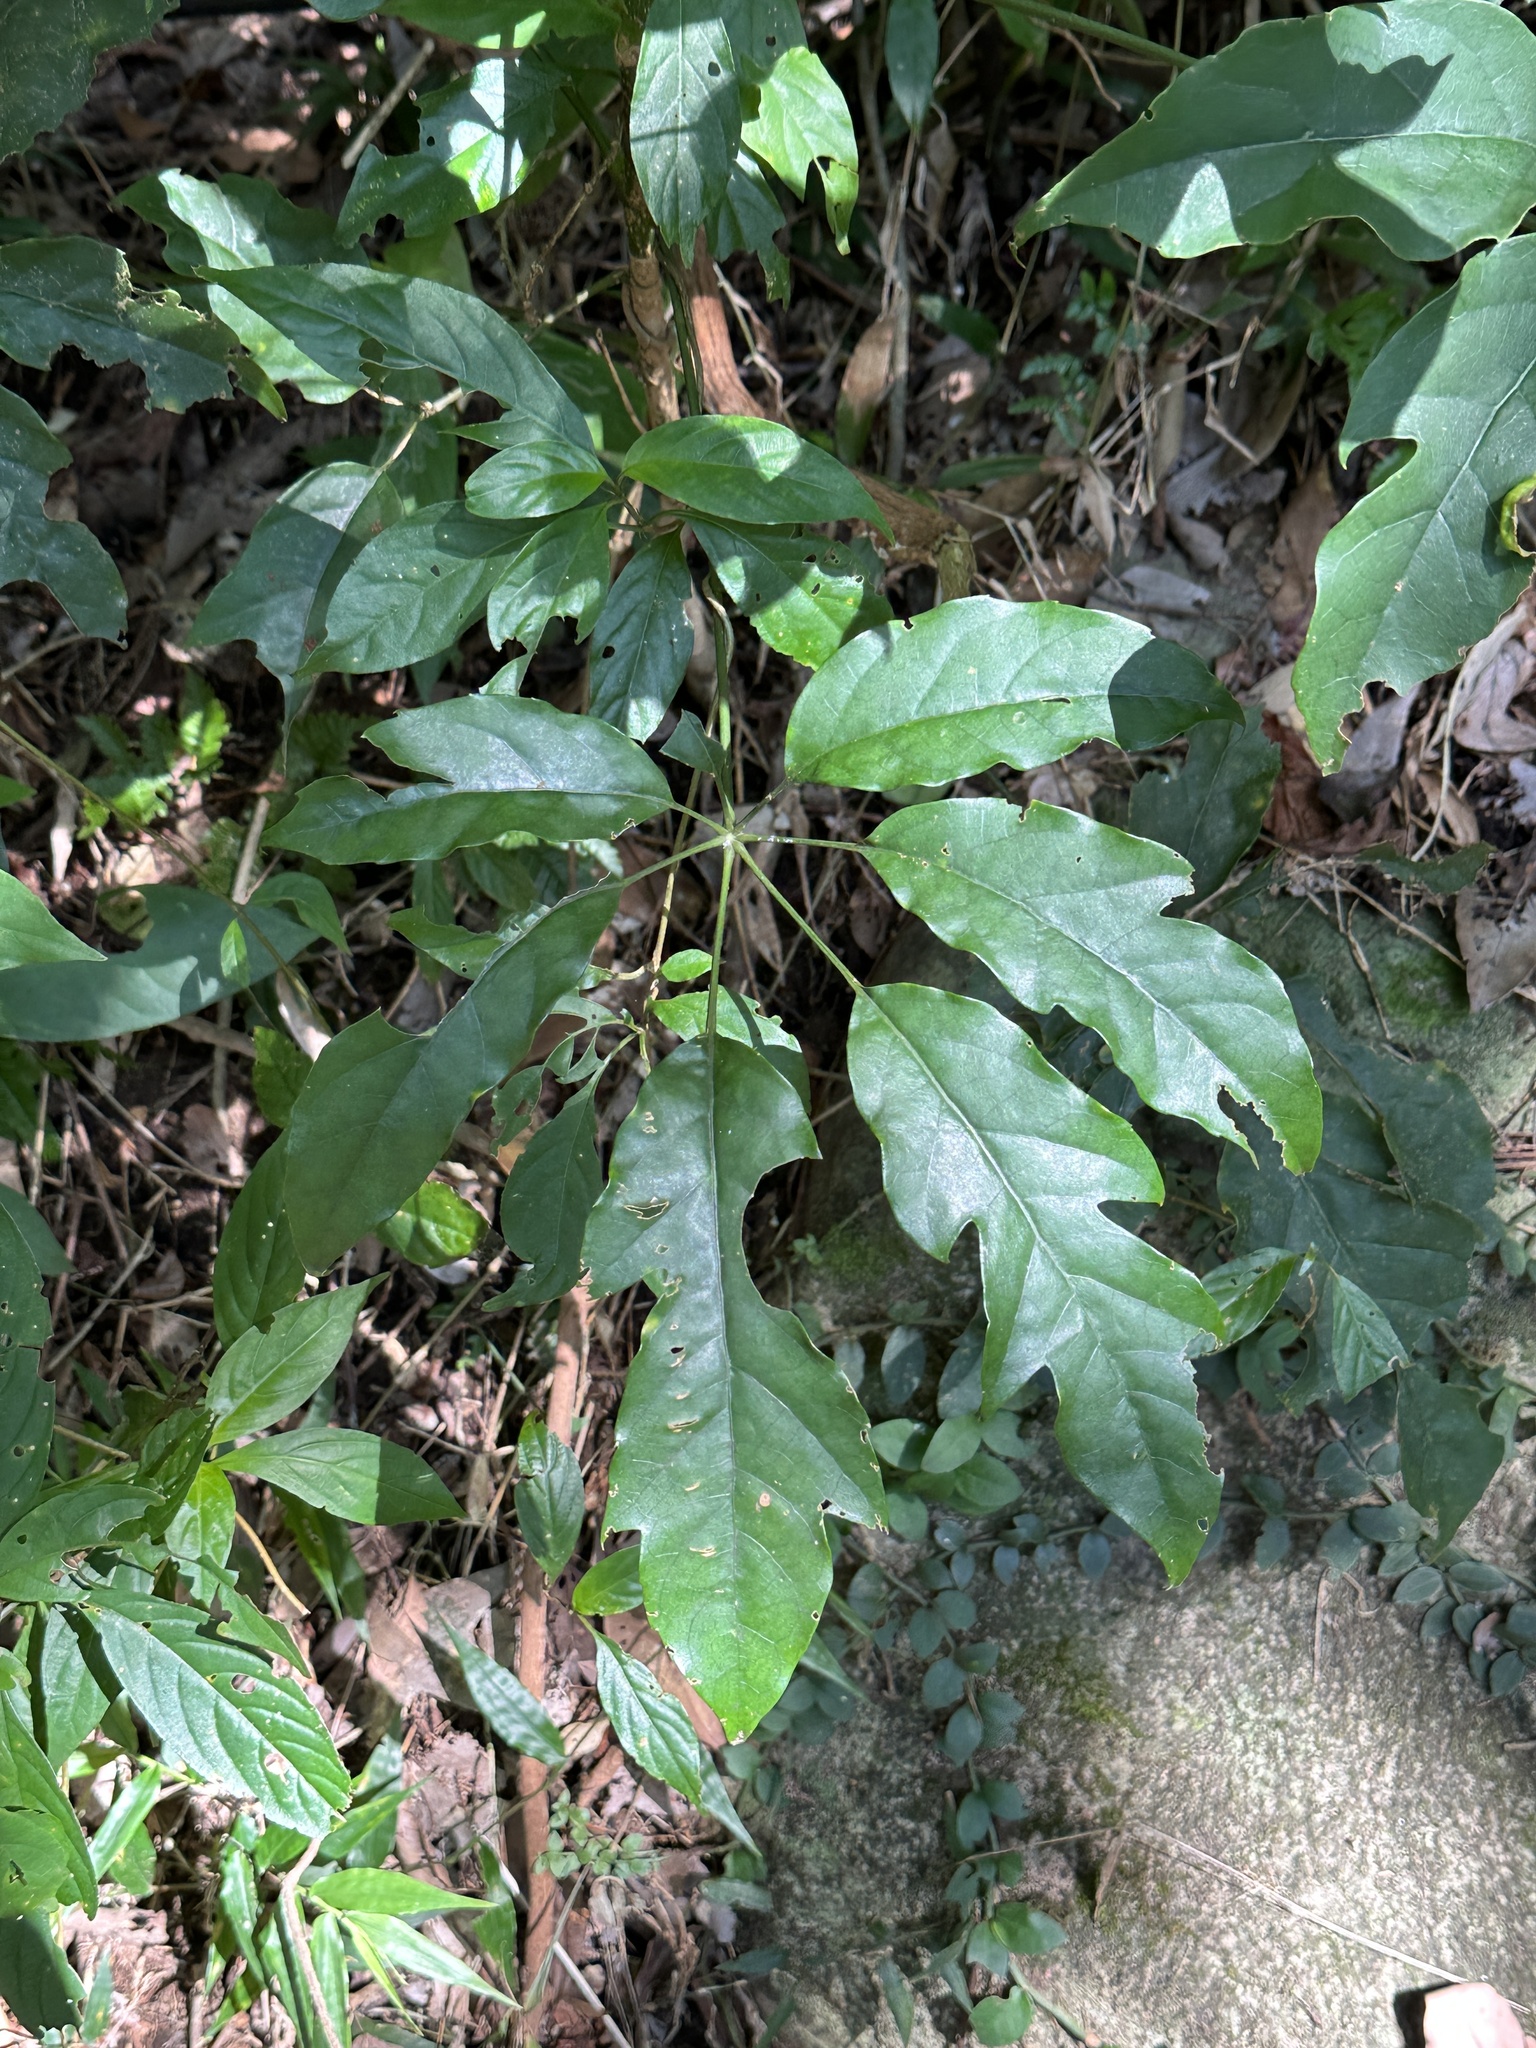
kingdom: Plantae
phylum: Tracheophyta
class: Magnoliopsida
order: Apiales
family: Araliaceae
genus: Heptapleurum
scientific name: Heptapleurum heptaphyllum
